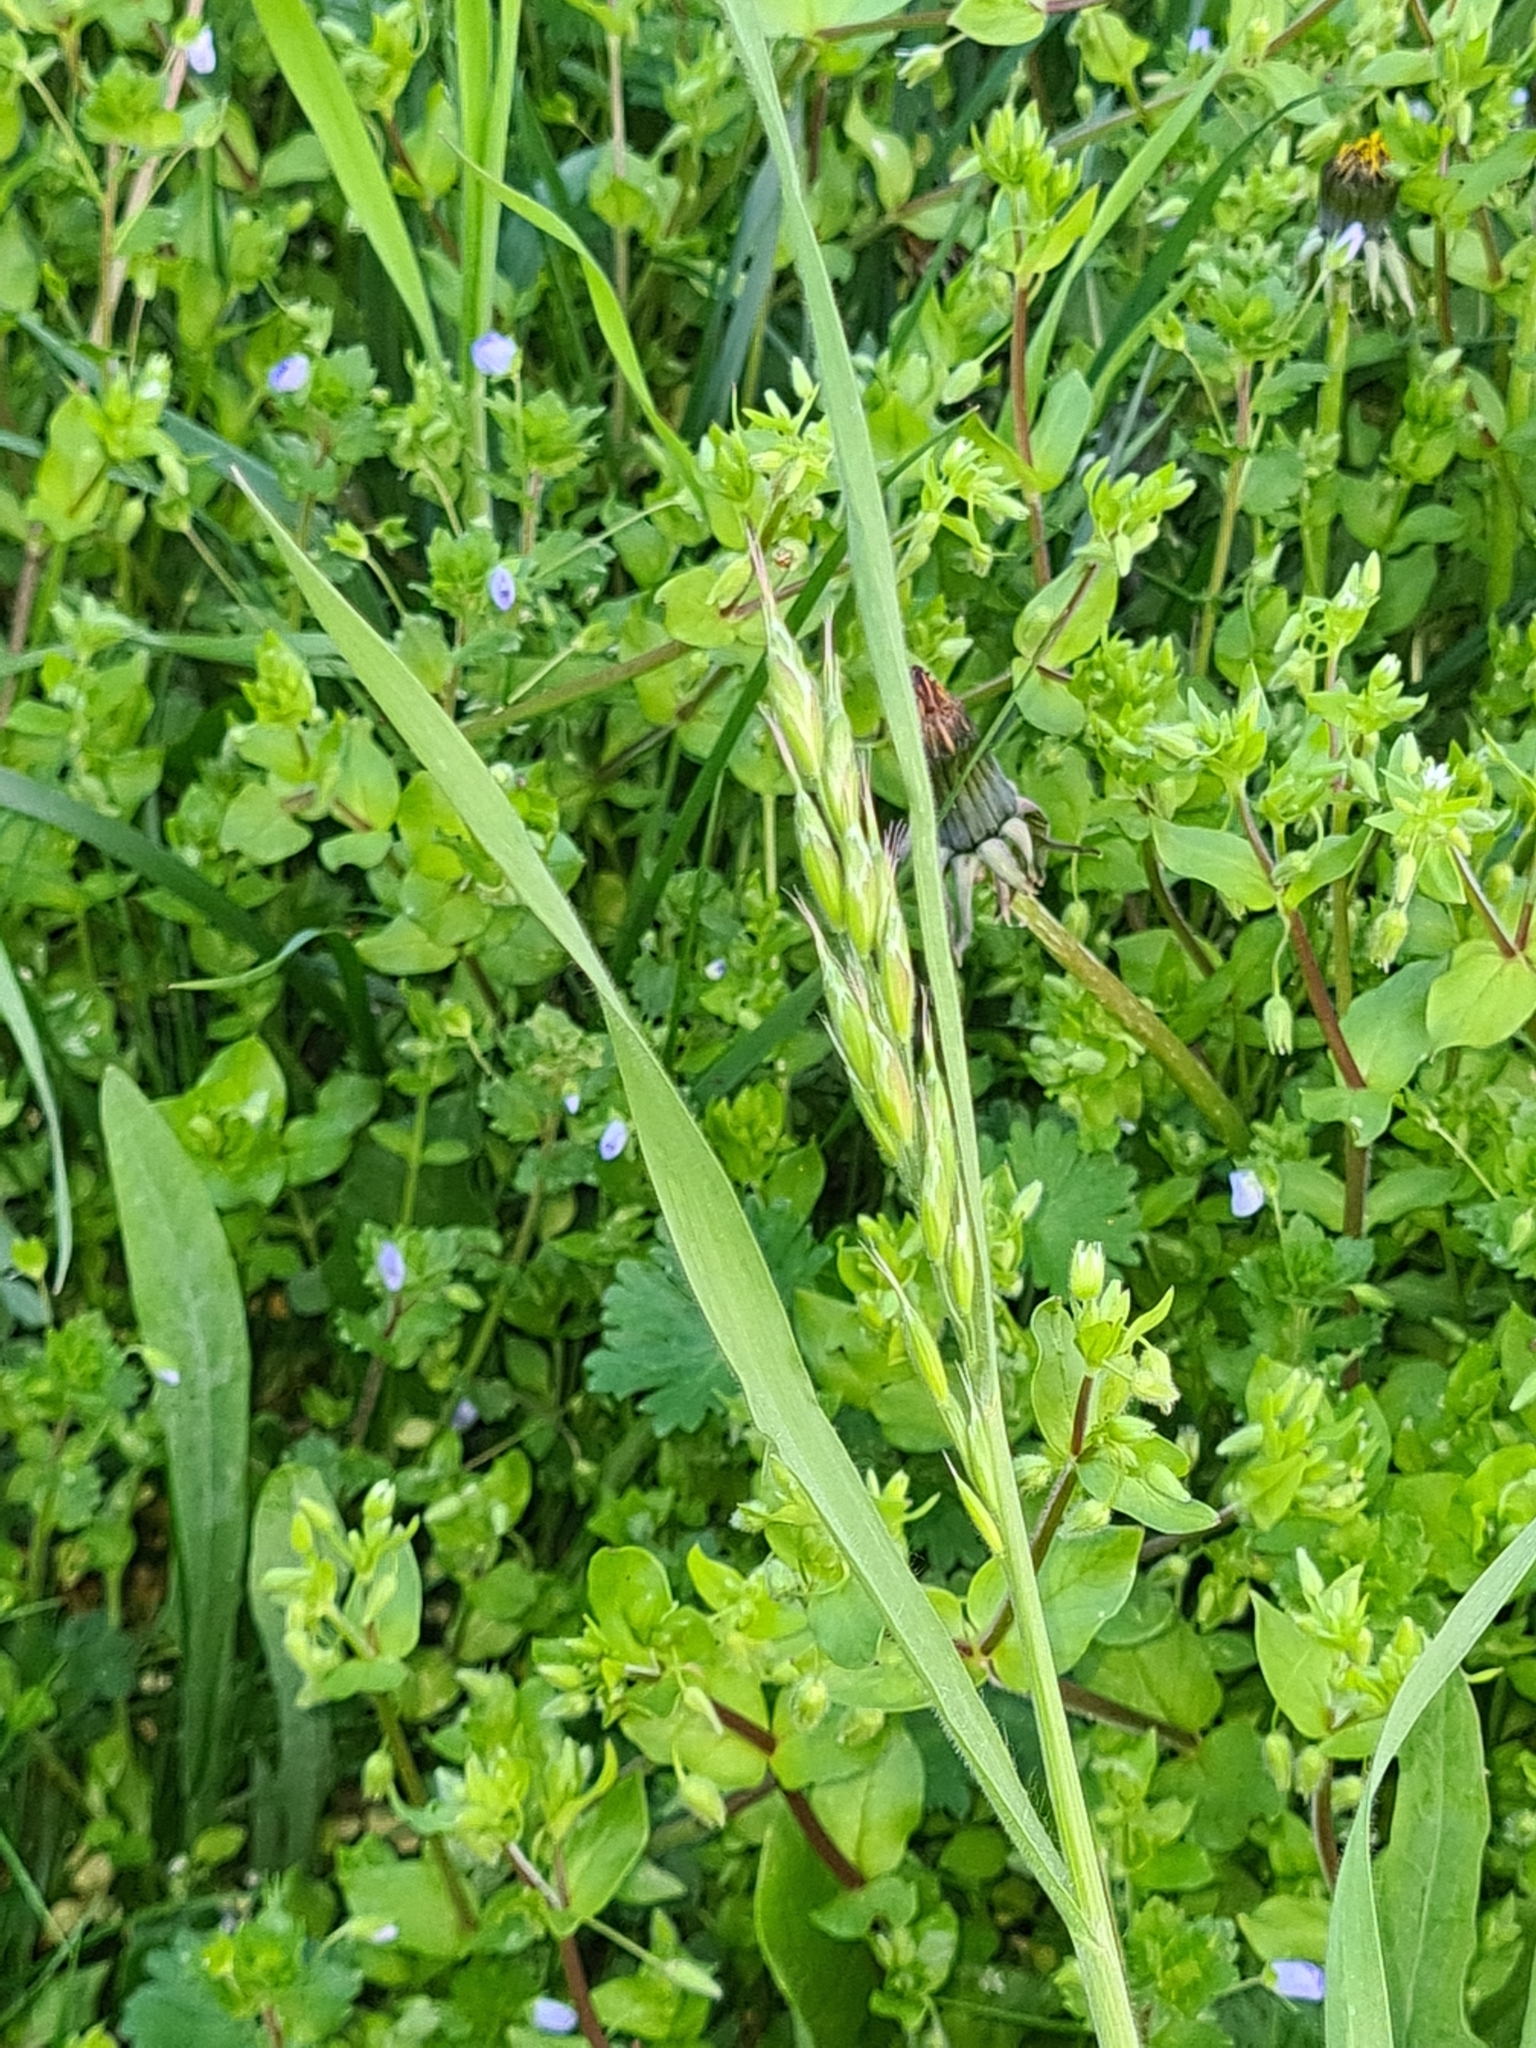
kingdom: Plantae
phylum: Tracheophyta
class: Liliopsida
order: Poales
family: Poaceae
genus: Bromus
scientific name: Bromus hordeaceus
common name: Soft brome
